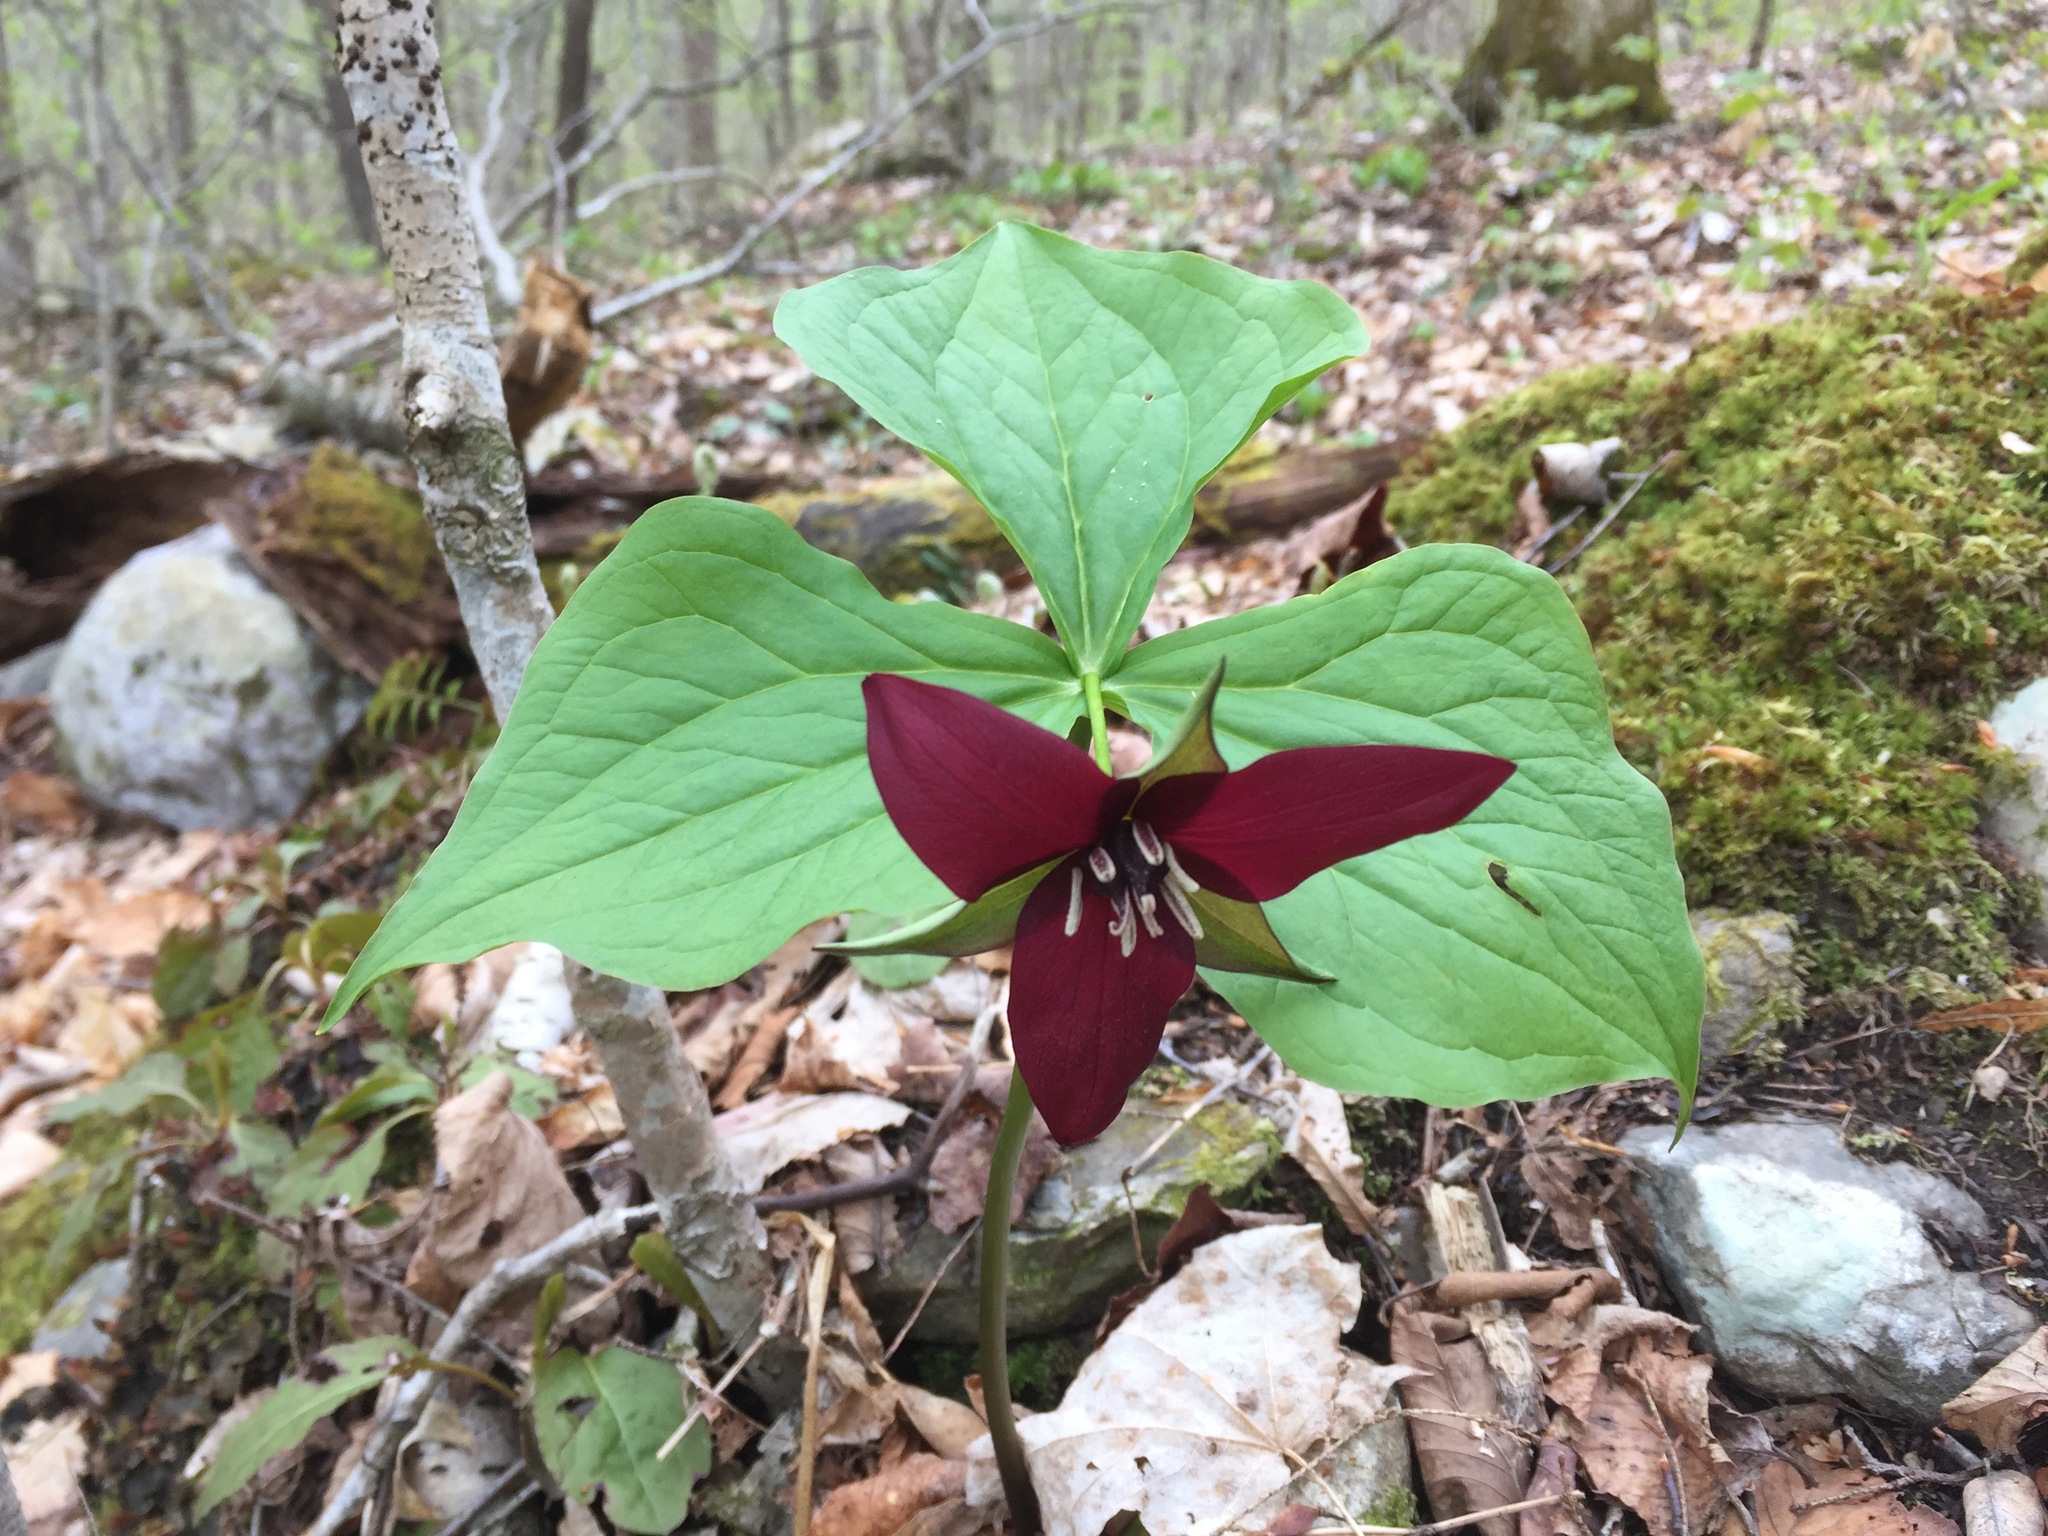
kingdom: Plantae
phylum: Tracheophyta
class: Liliopsida
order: Liliales
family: Melanthiaceae
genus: Trillium
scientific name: Trillium erectum
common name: Purple trillium
